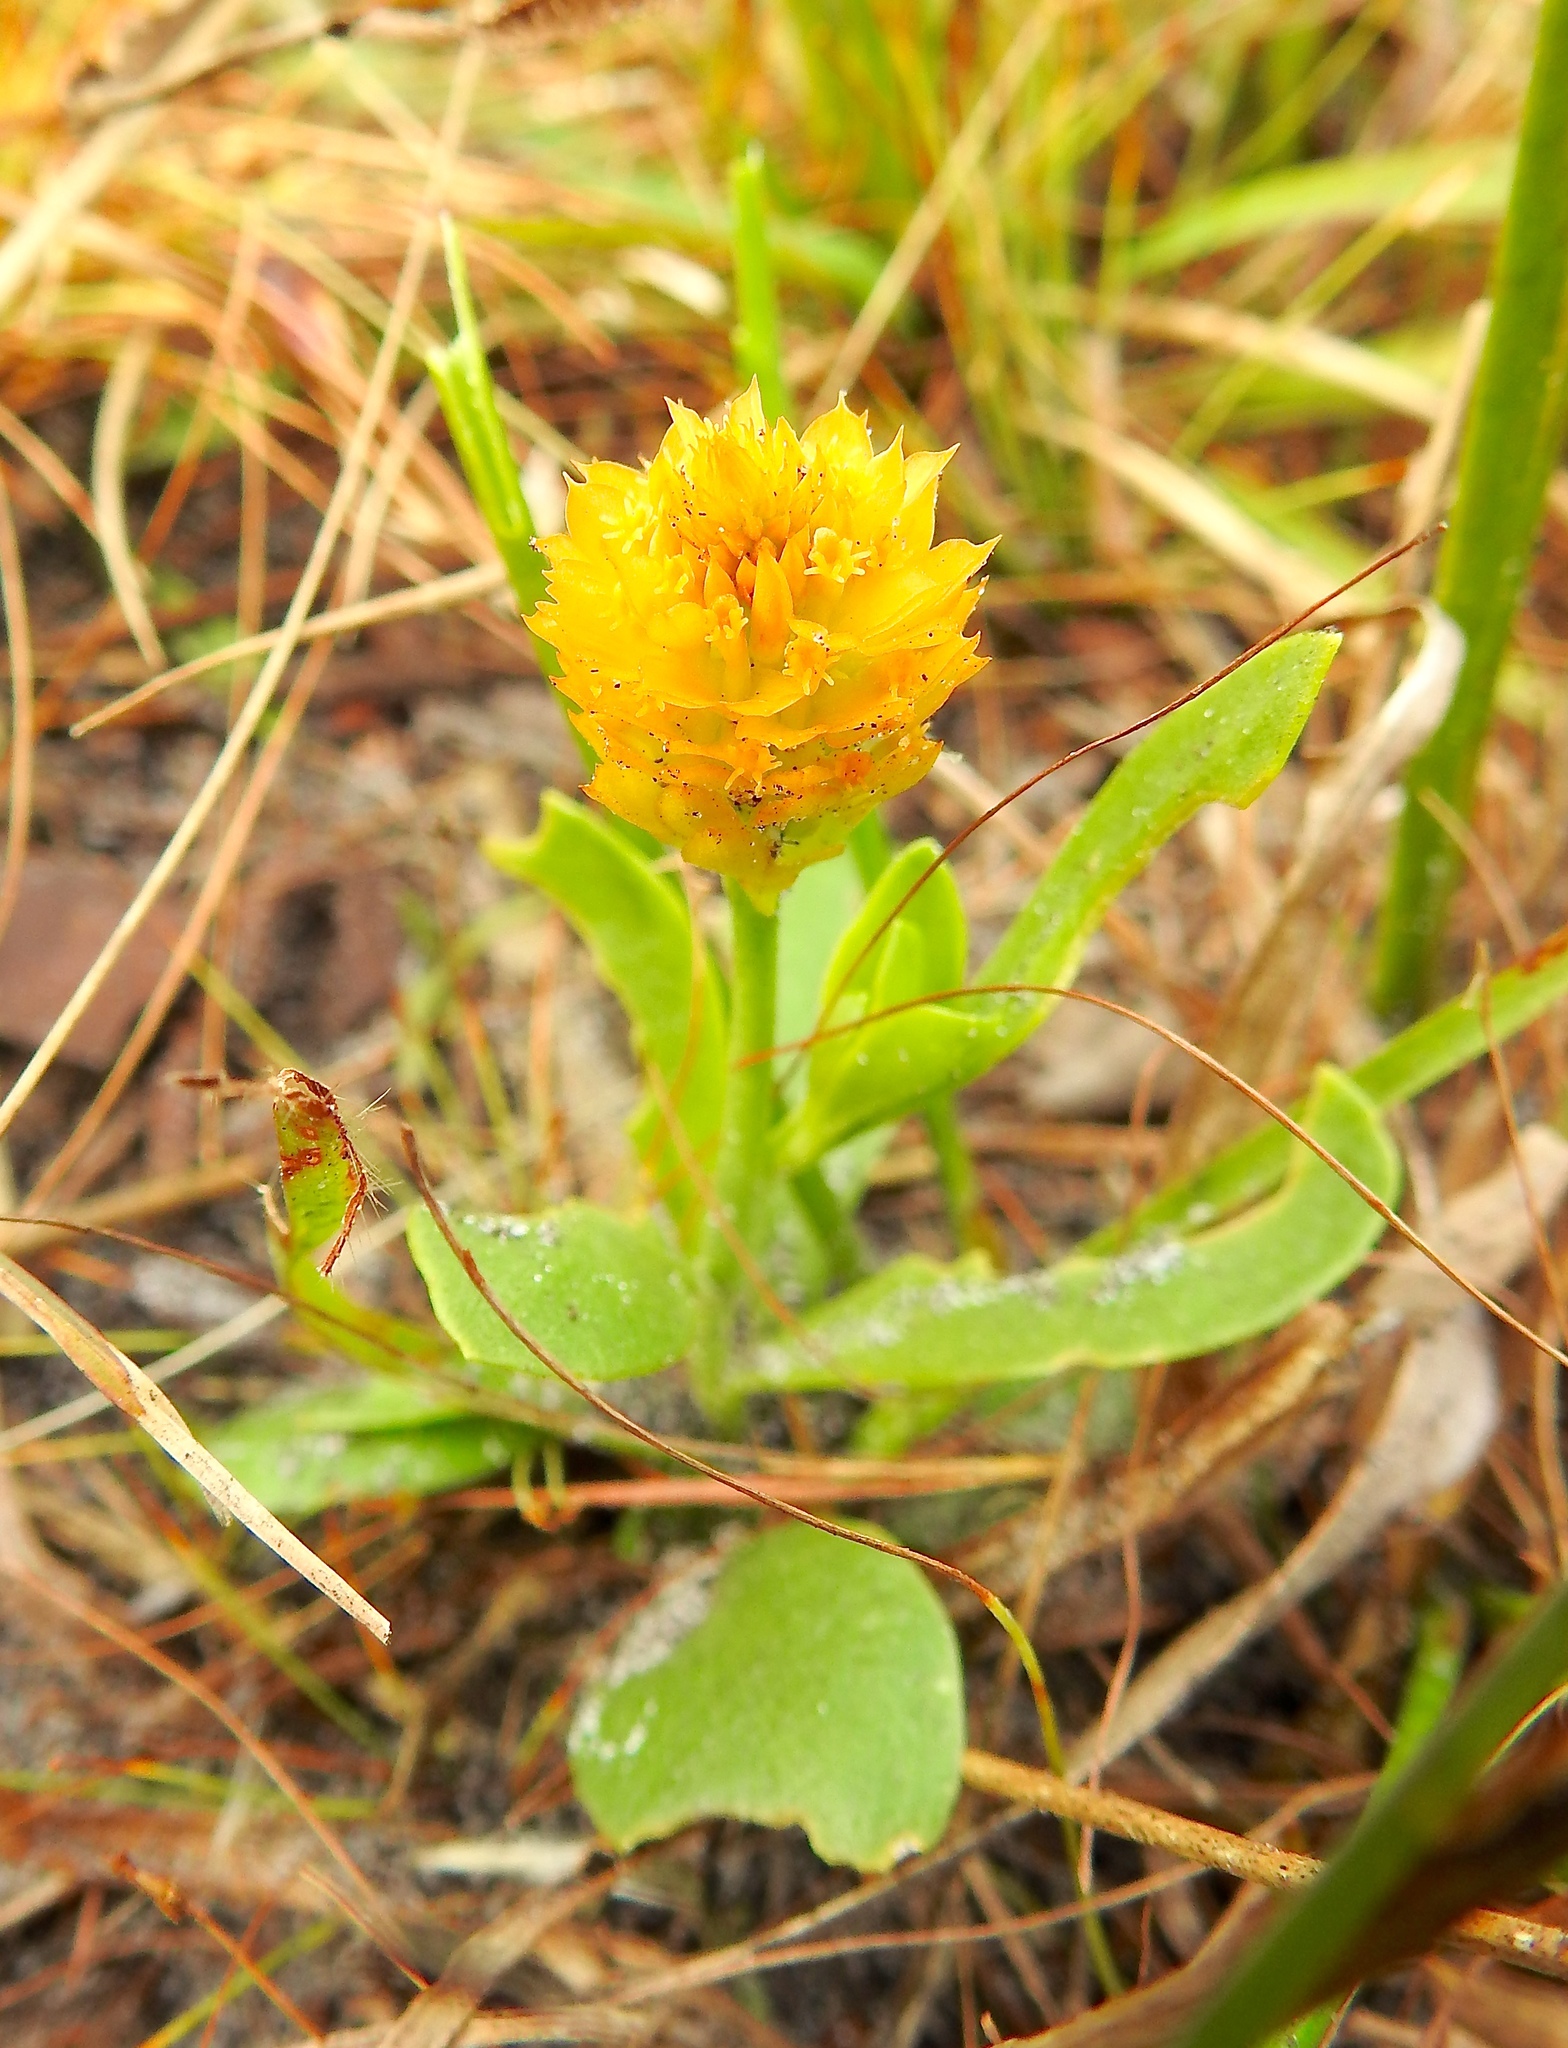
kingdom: Plantae
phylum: Tracheophyta
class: Magnoliopsida
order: Fabales
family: Polygalaceae
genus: Polygala
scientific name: Polygala lutea
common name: Orange milkwort
